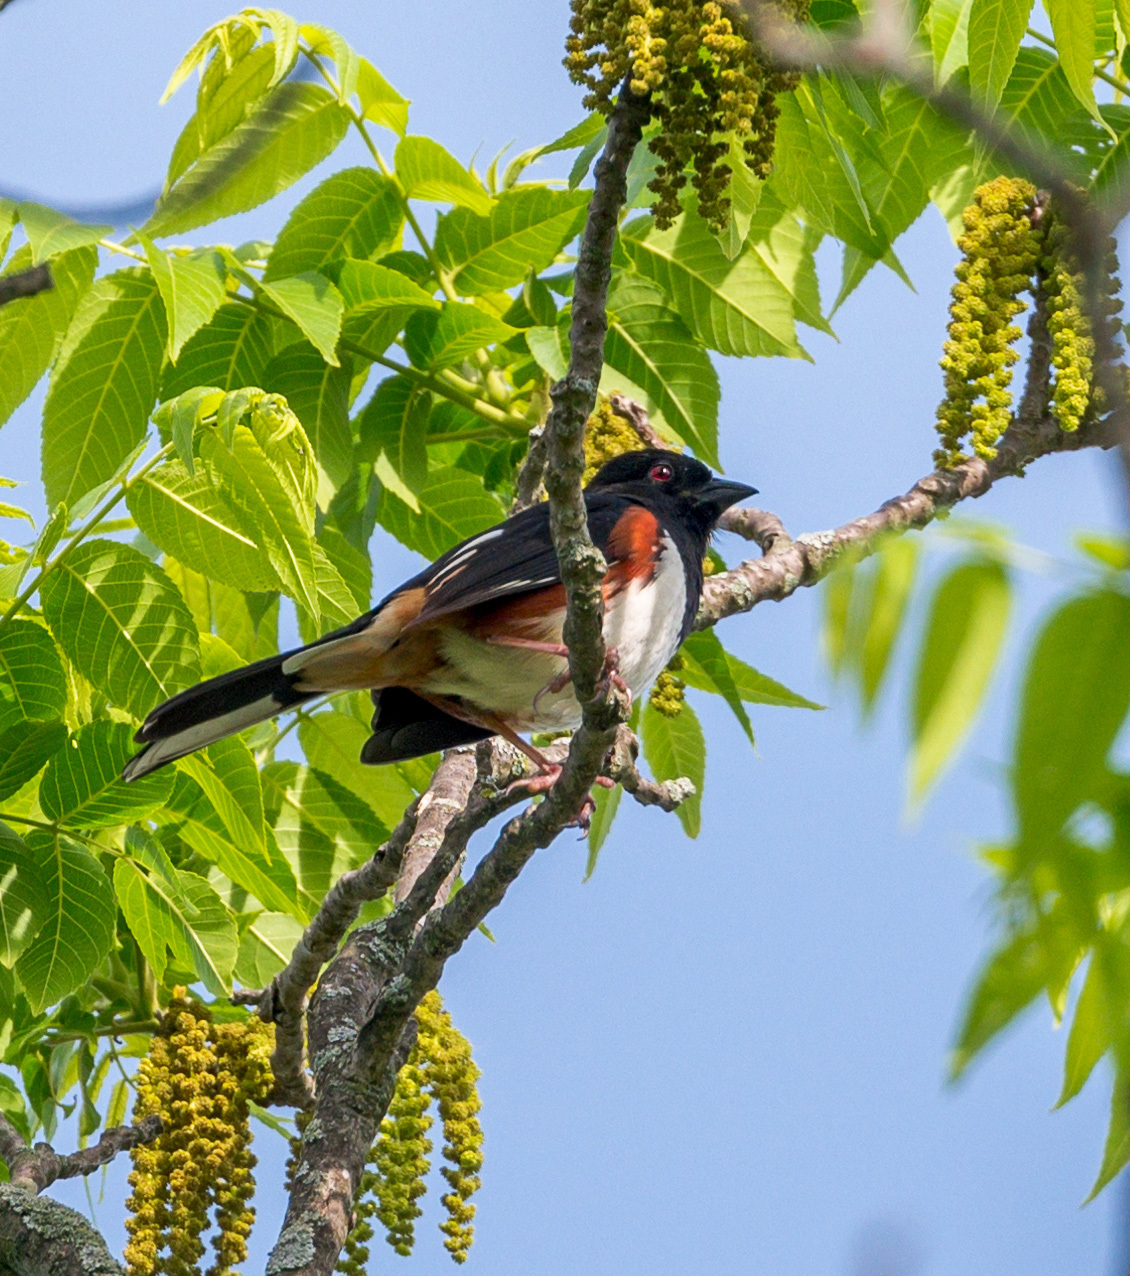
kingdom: Animalia
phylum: Chordata
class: Aves
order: Passeriformes
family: Passerellidae
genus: Pipilo
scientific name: Pipilo erythrophthalmus
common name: Eastern towhee
